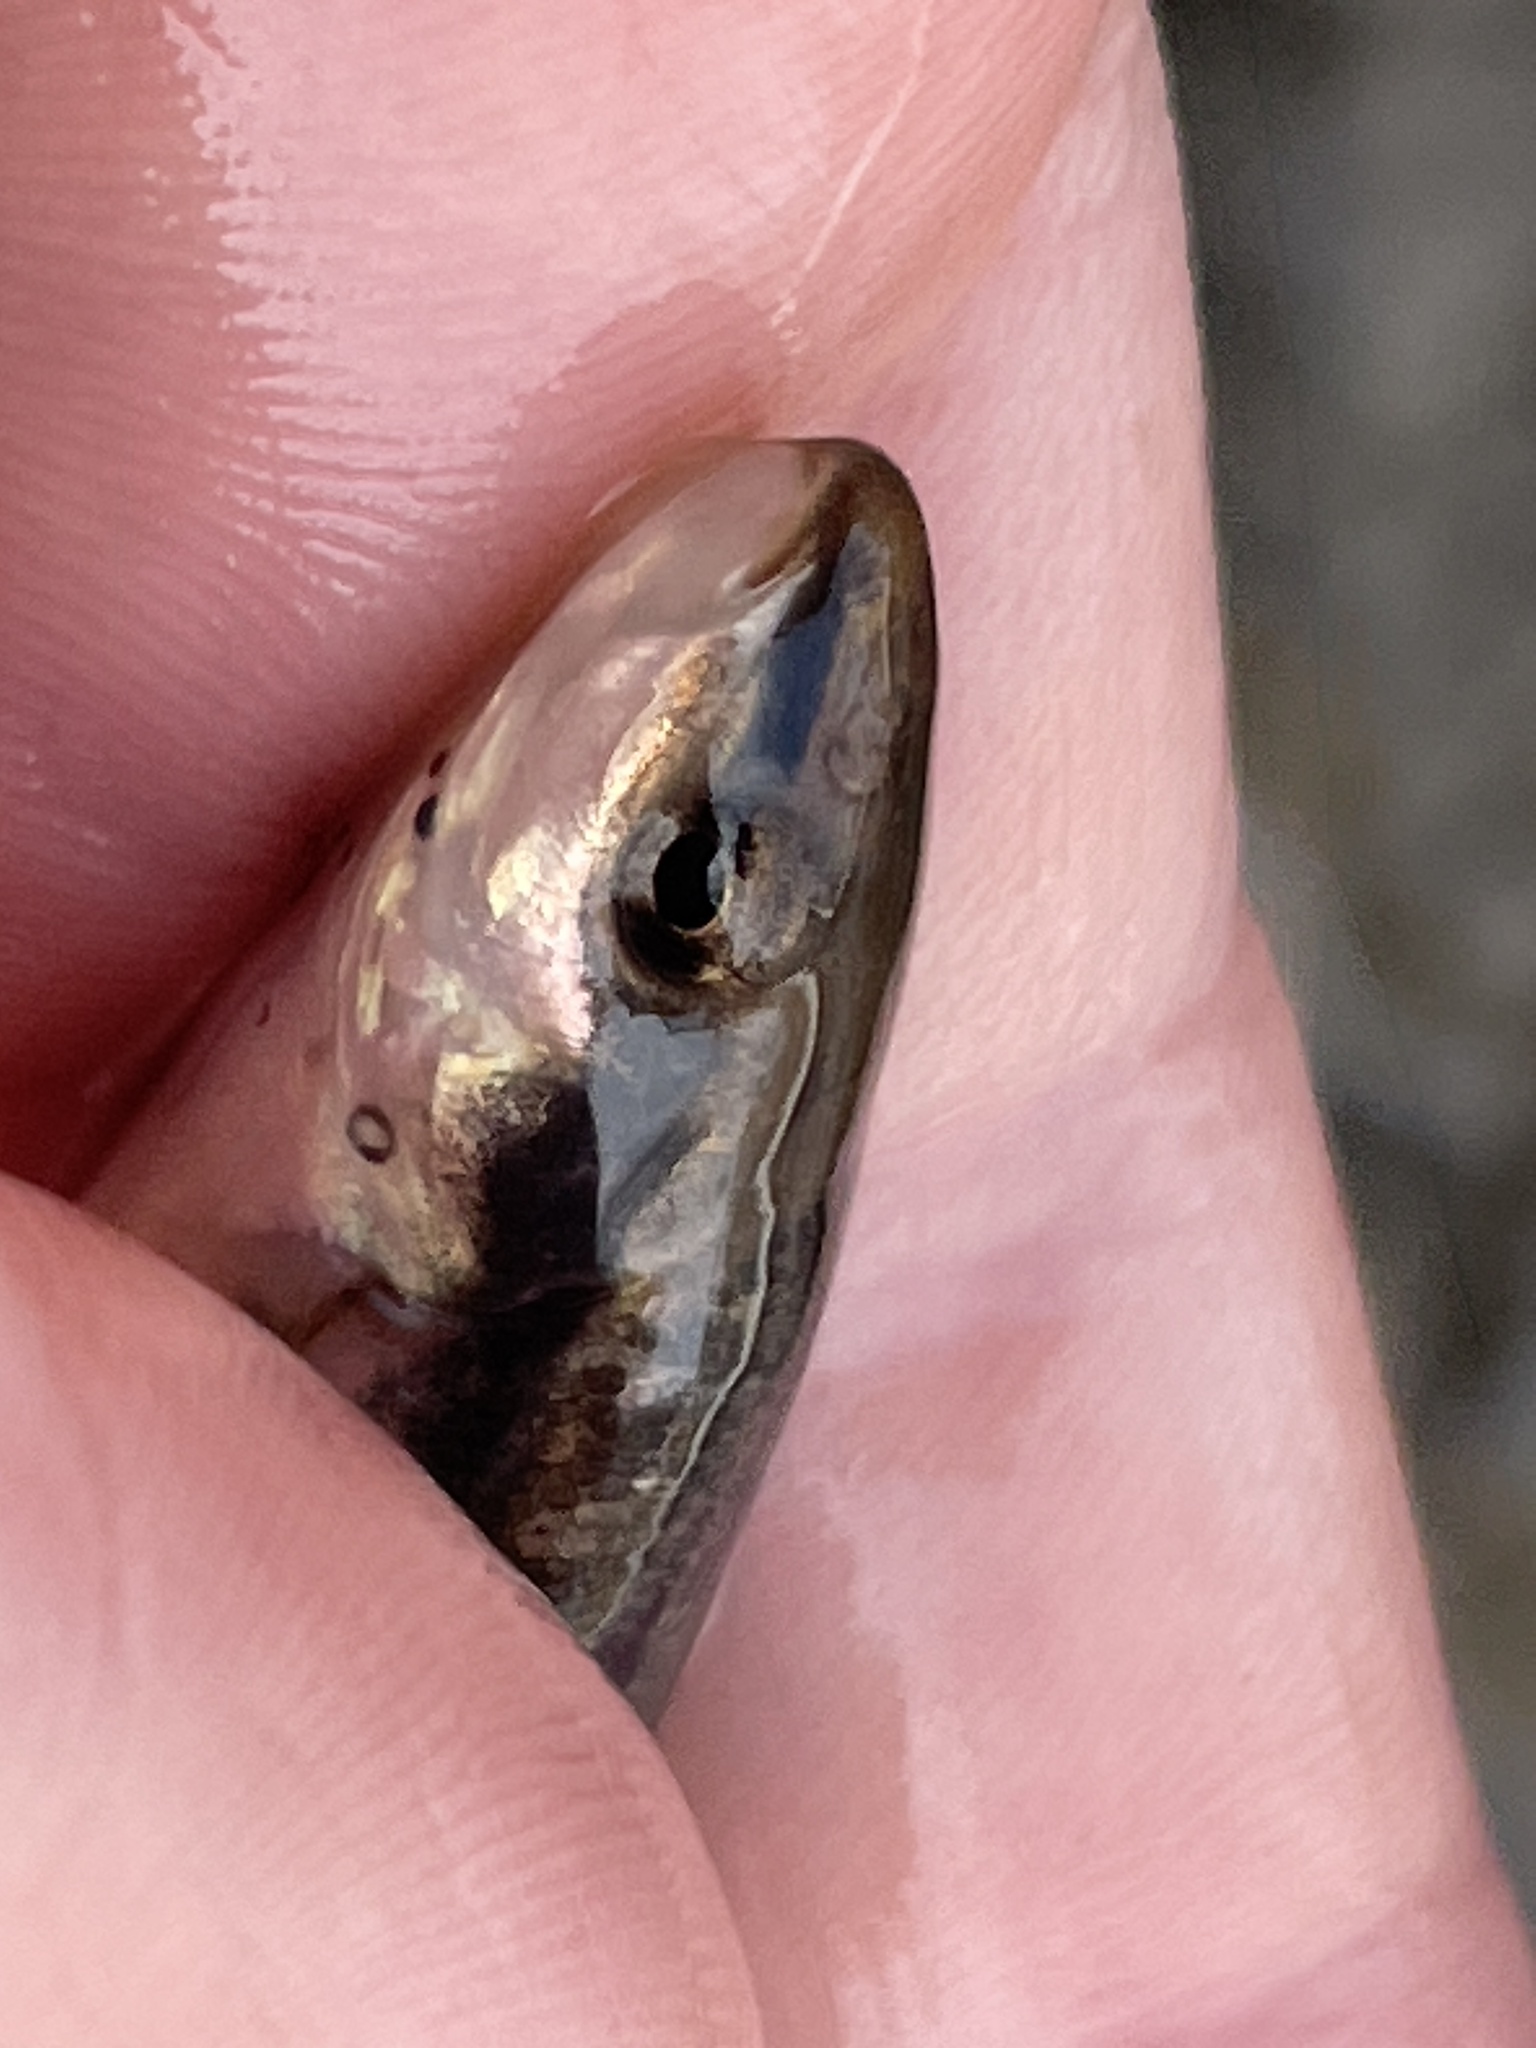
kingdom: Animalia
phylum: Chordata
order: Cypriniformes
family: Cyprinidae
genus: Rhinichthys
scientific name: Rhinichthys obtusus
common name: Western blacknose dace
